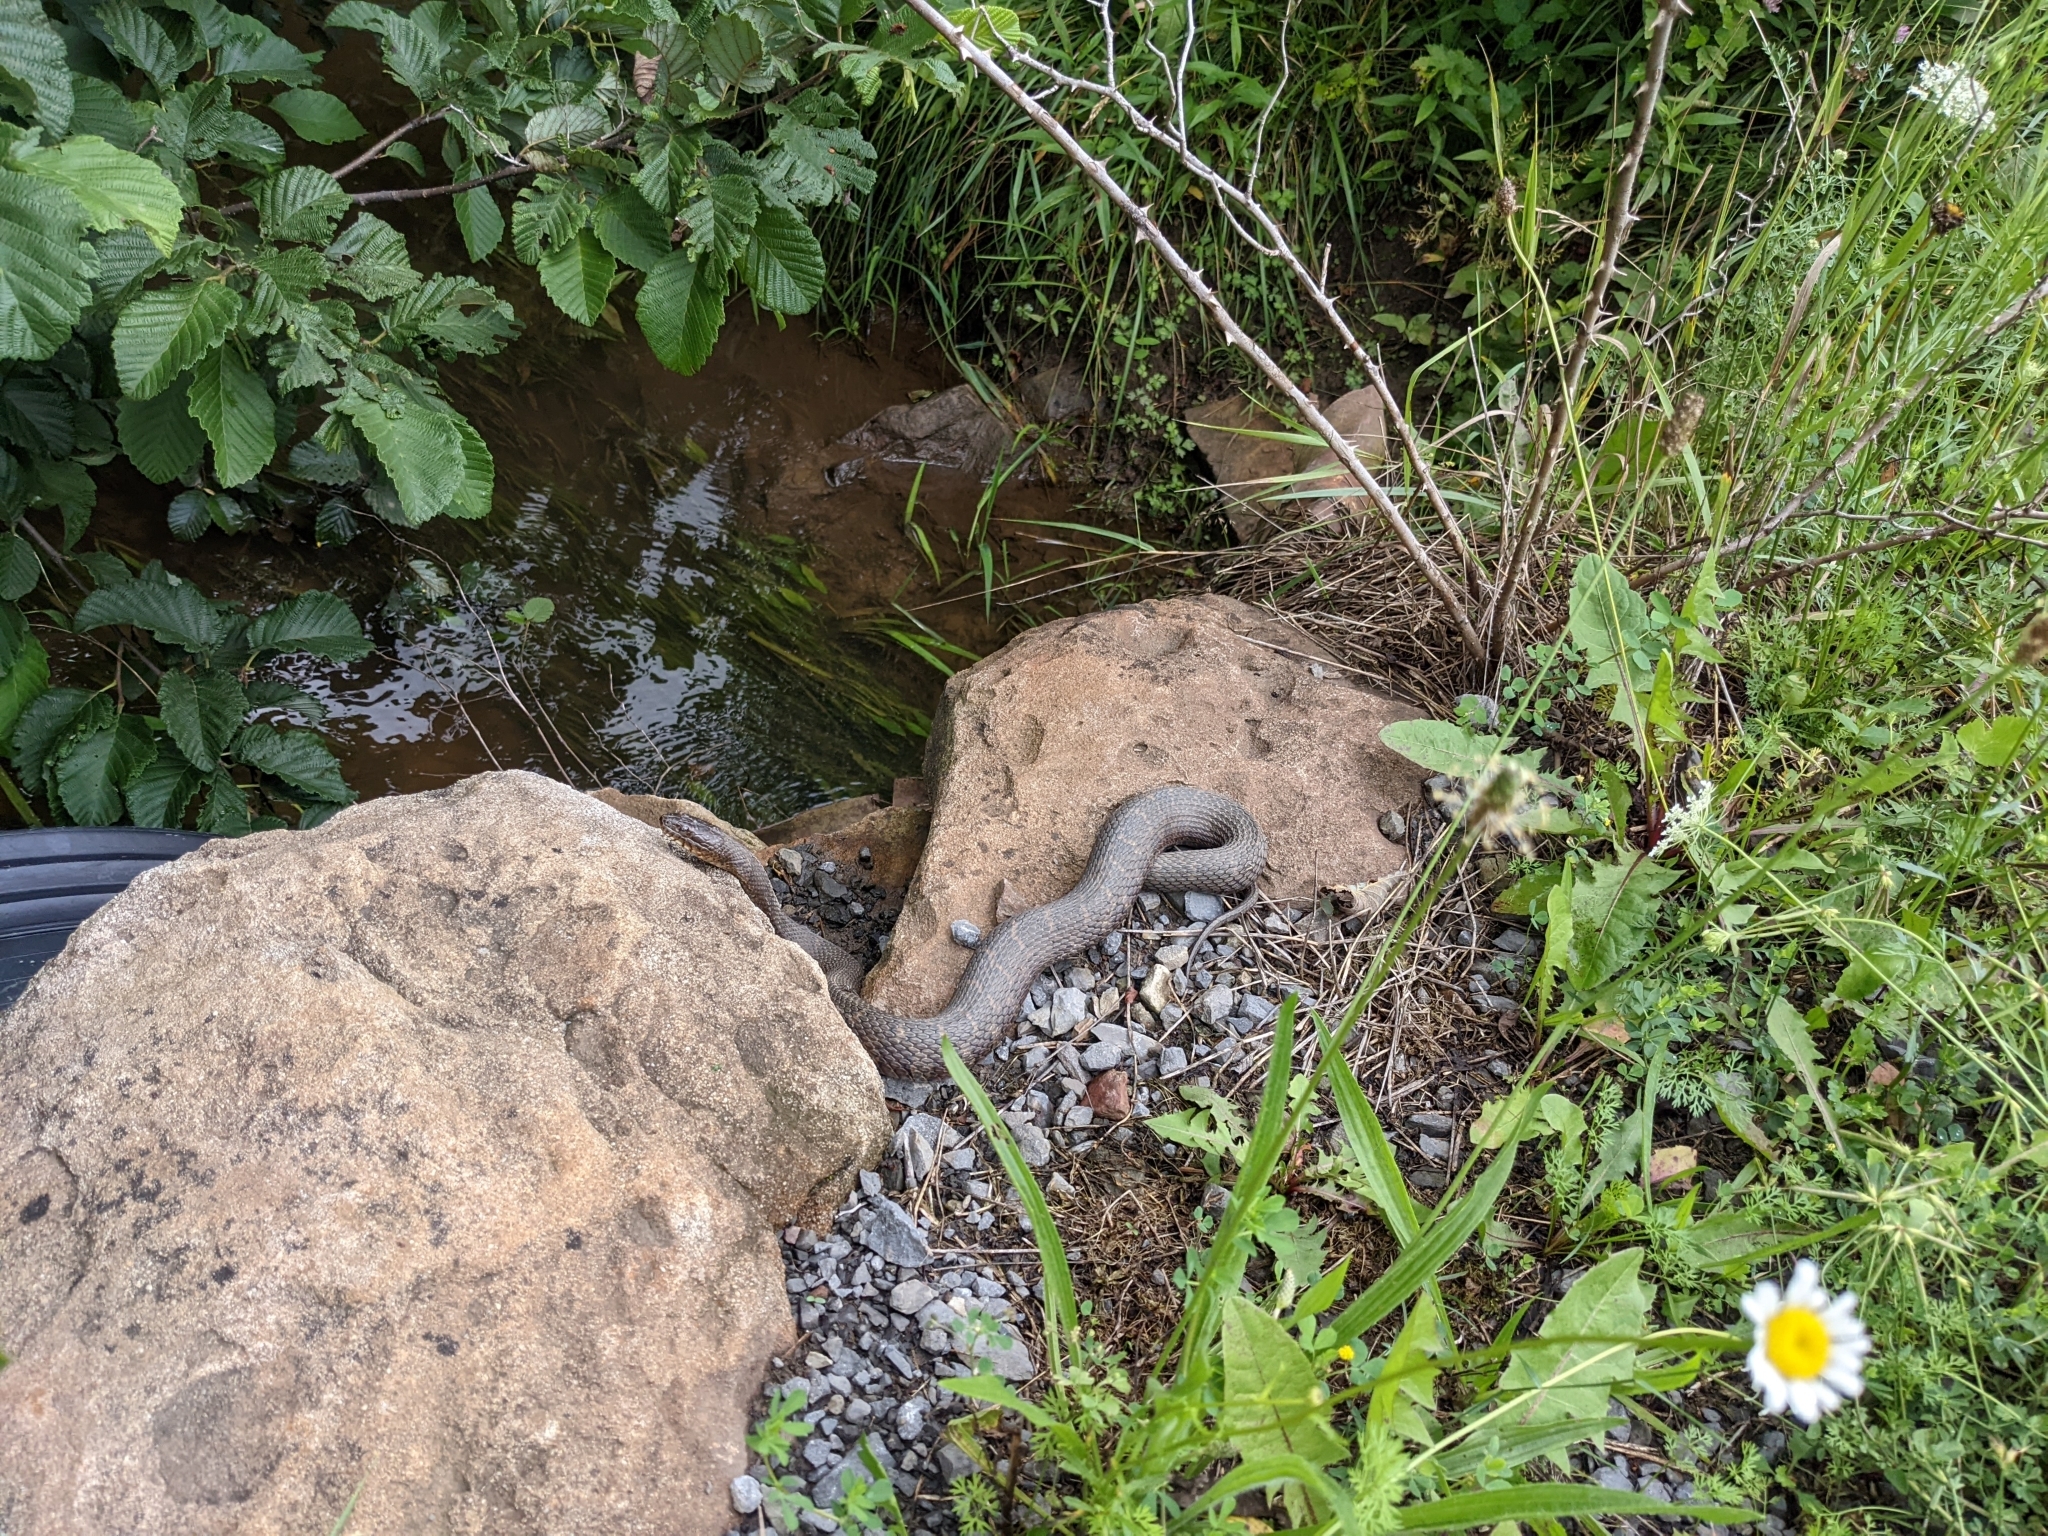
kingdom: Animalia
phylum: Chordata
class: Squamata
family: Colubridae
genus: Nerodia
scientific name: Nerodia sipedon
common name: Northern water snake
